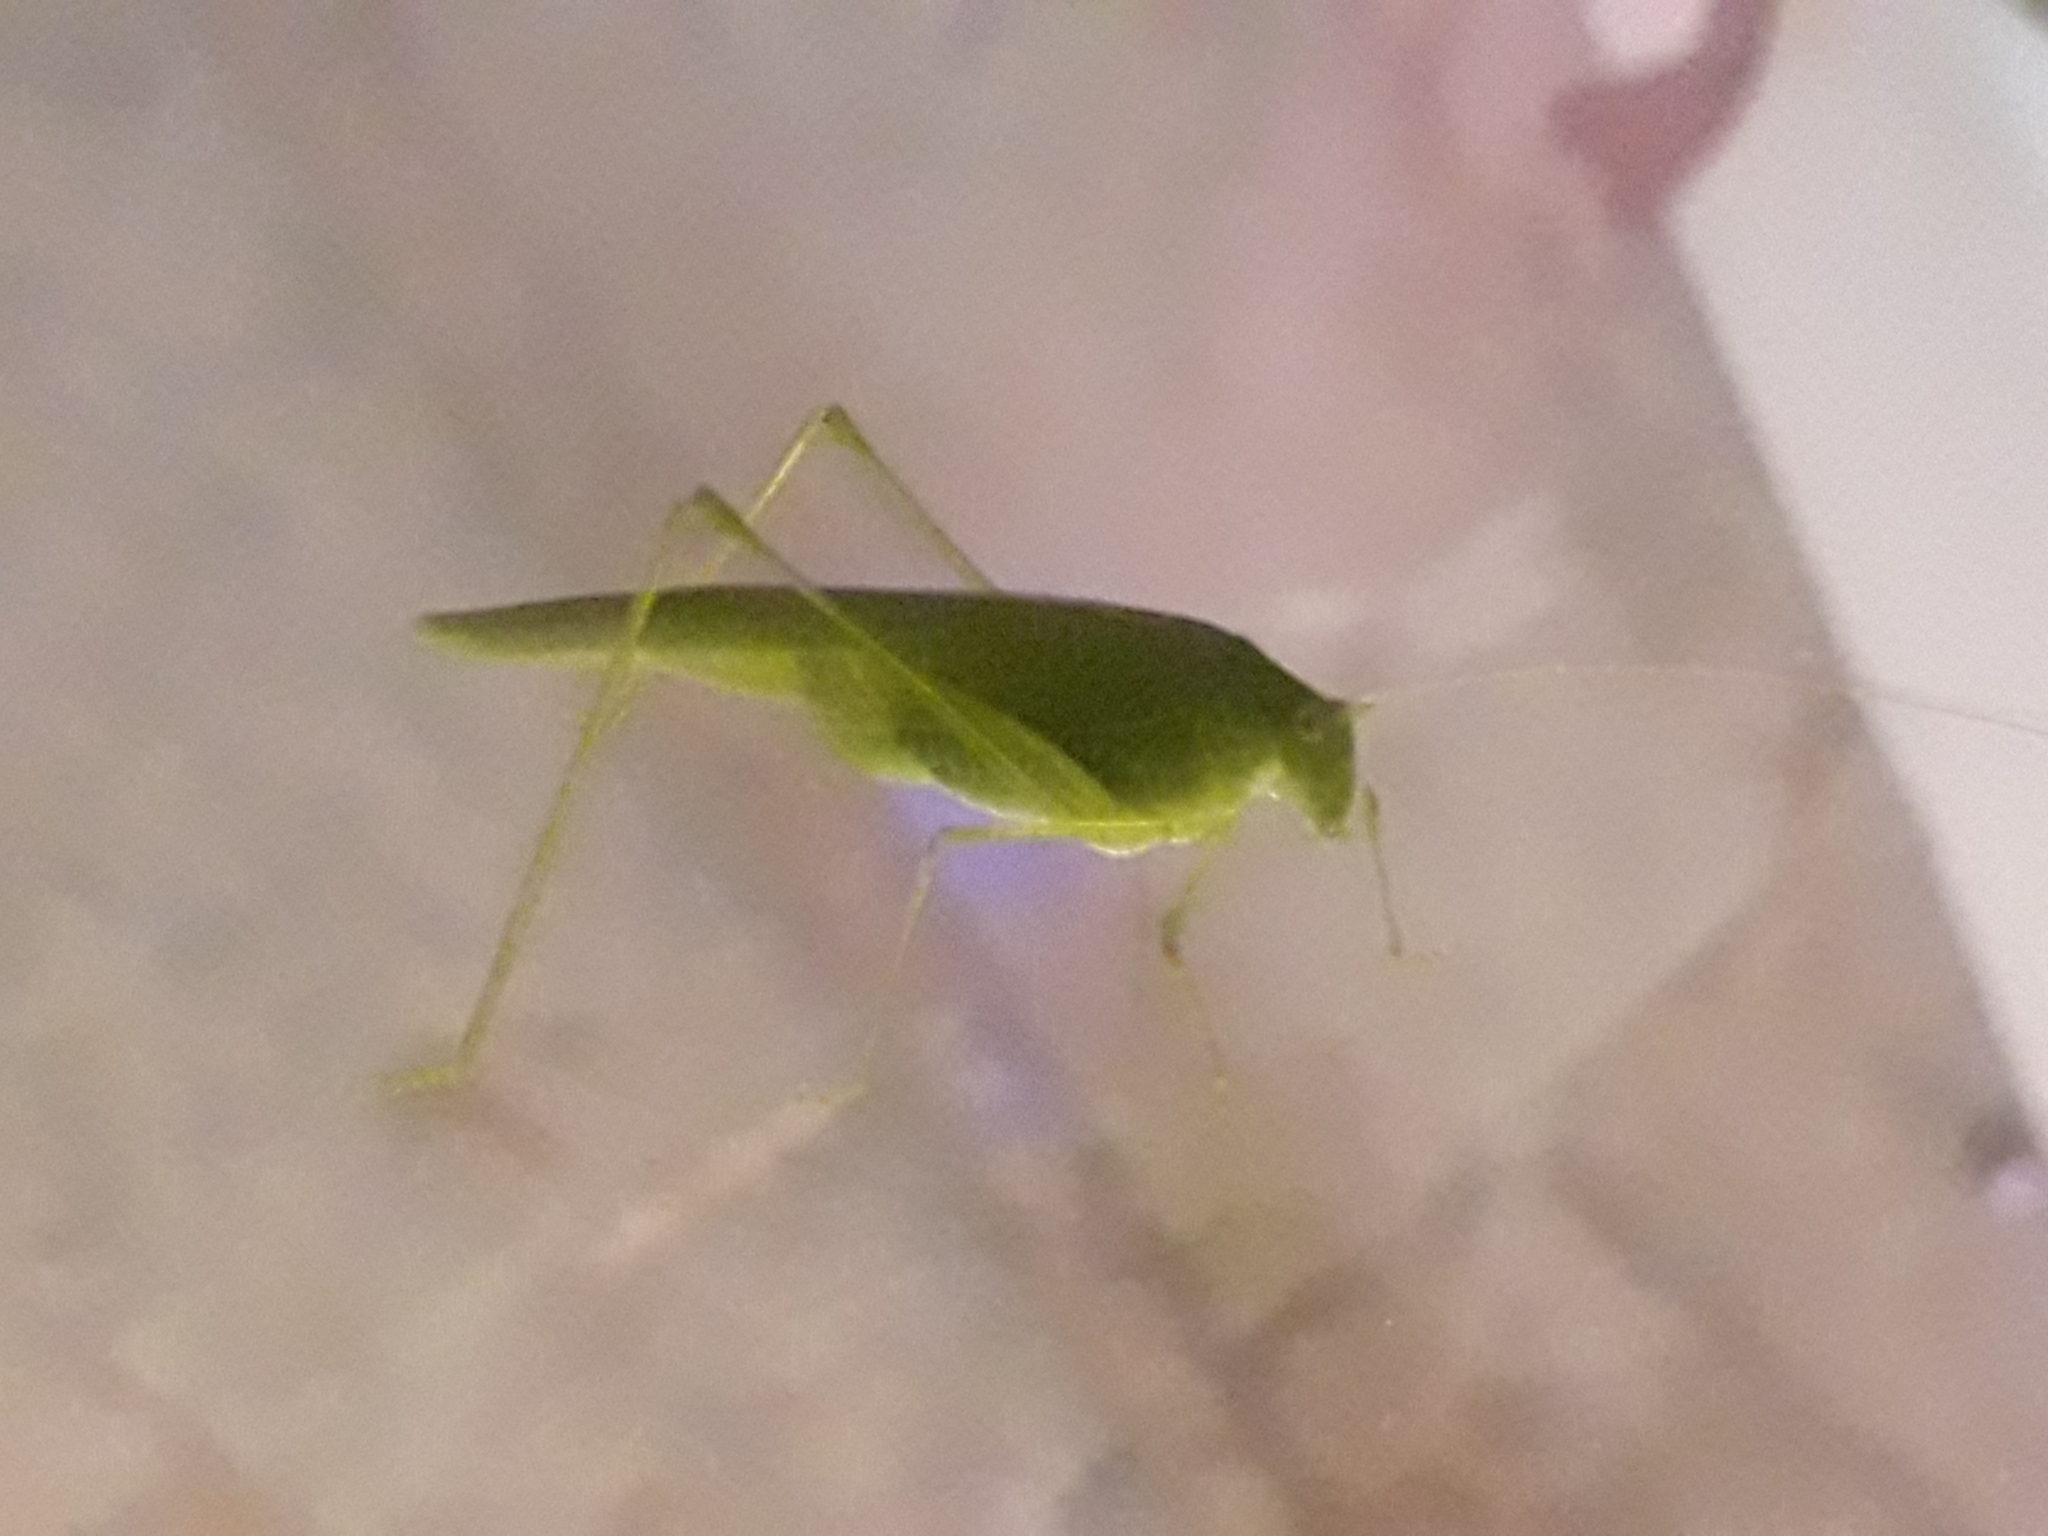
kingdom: Animalia
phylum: Arthropoda
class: Insecta
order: Orthoptera
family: Tettigoniidae
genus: Phaneroptera
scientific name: Phaneroptera nana
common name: Southern sickle bush-cricket
